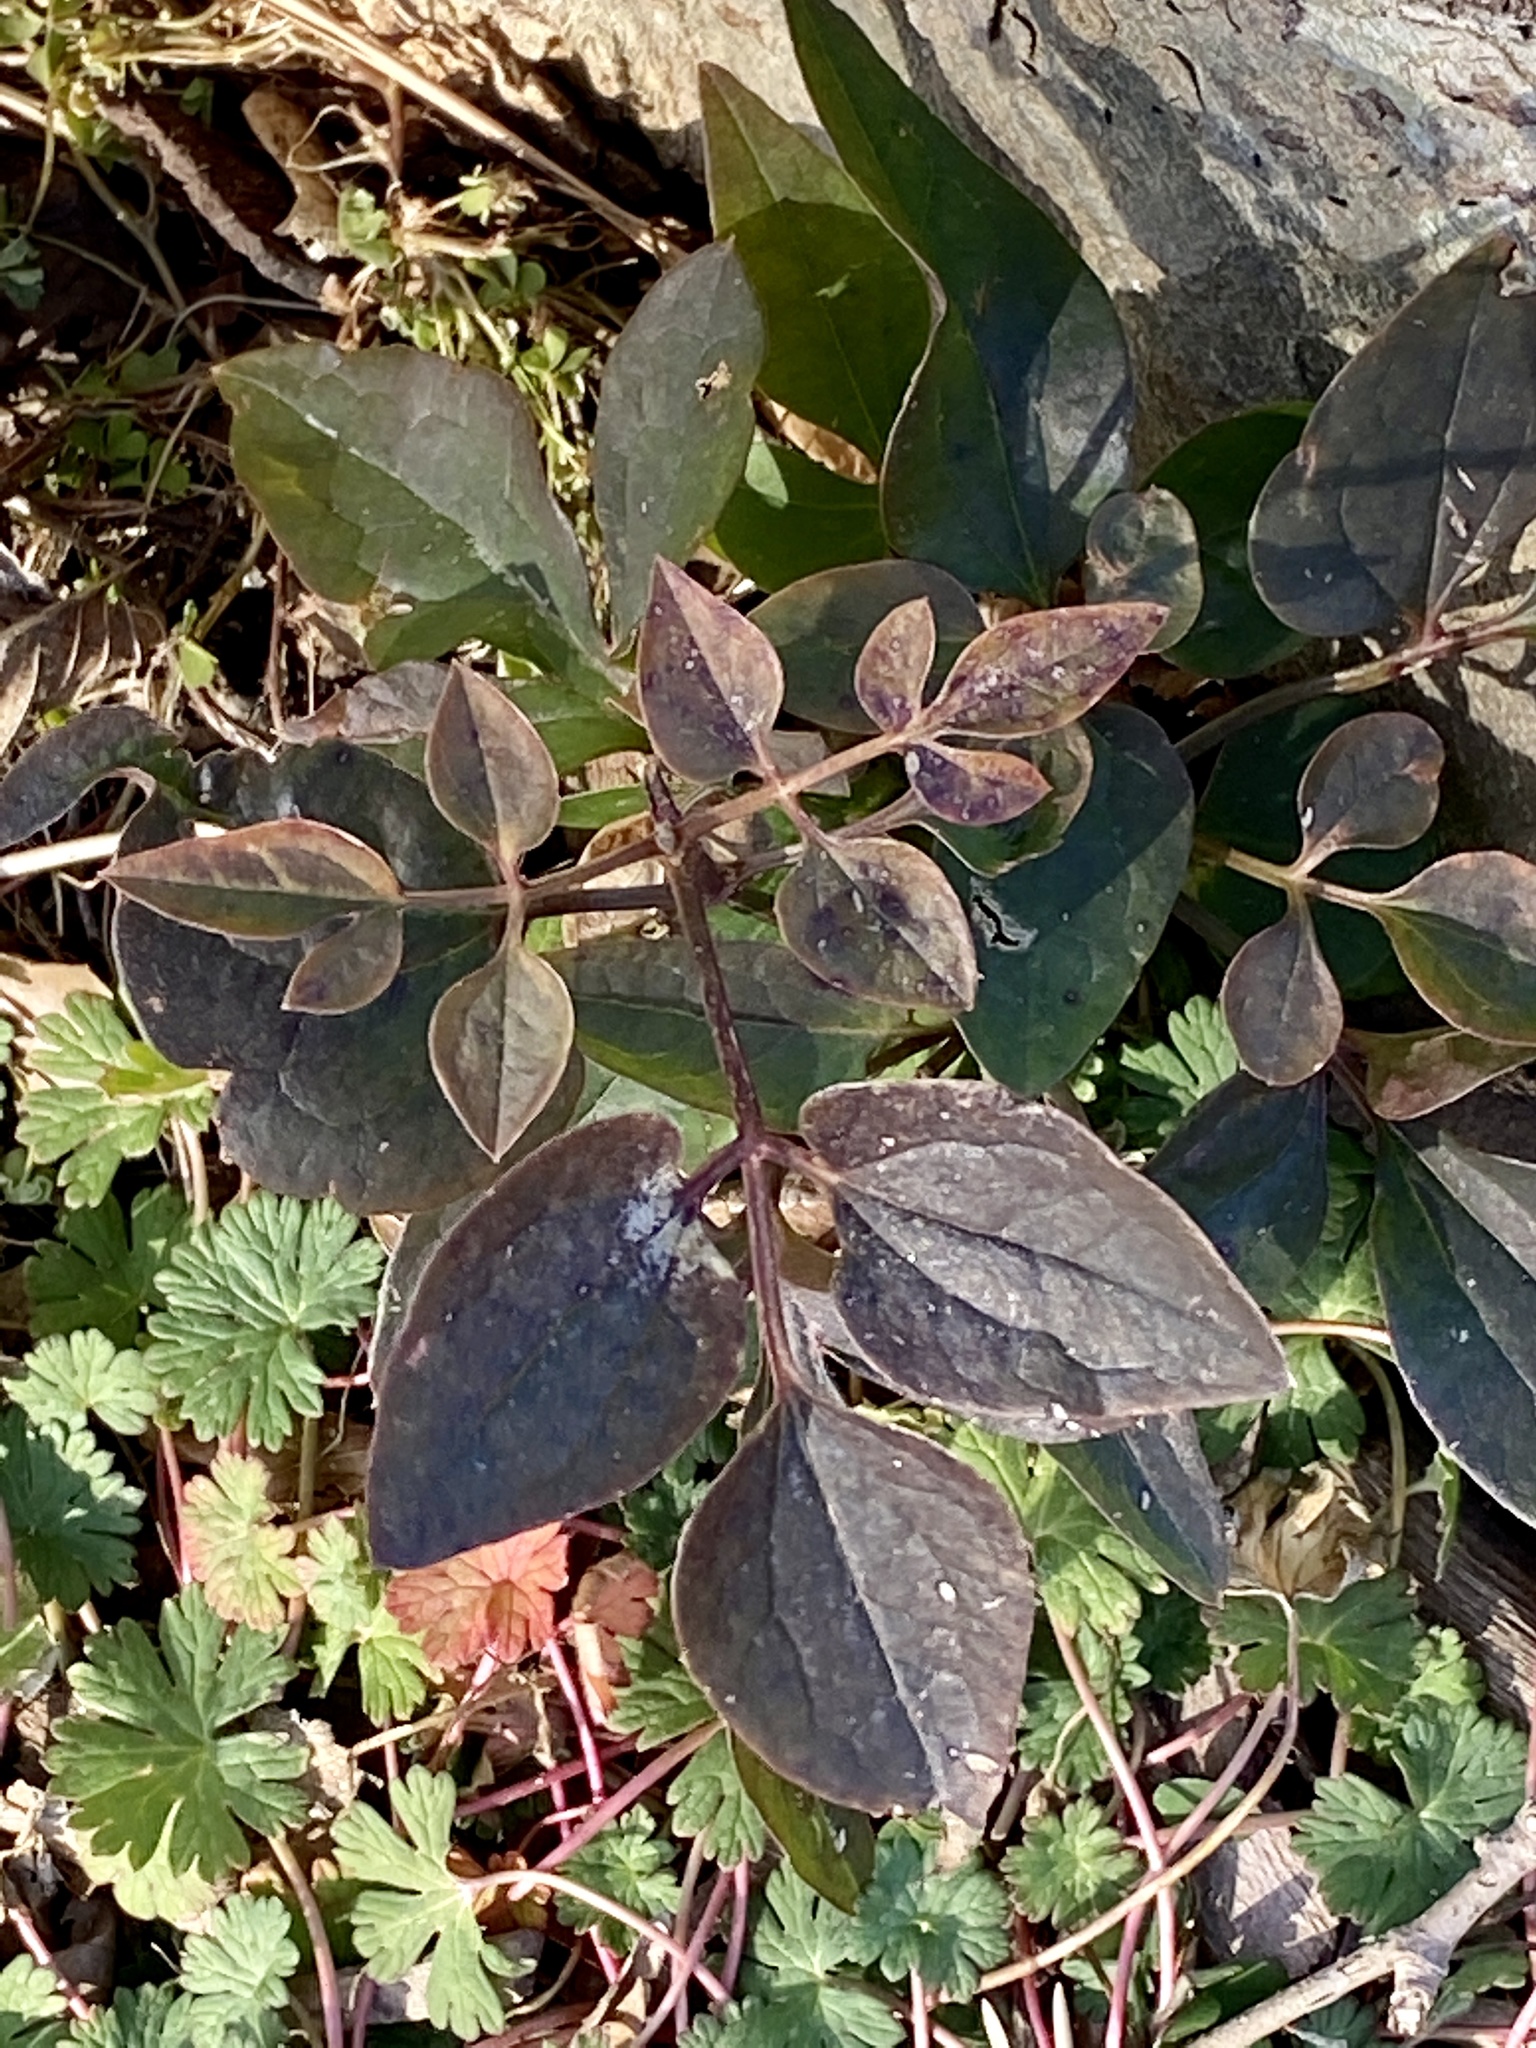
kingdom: Plantae
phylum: Tracheophyta
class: Magnoliopsida
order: Ranunculales
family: Ranunculaceae
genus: Clematis
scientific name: Clematis terniflora
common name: Sweet autumn clematis
